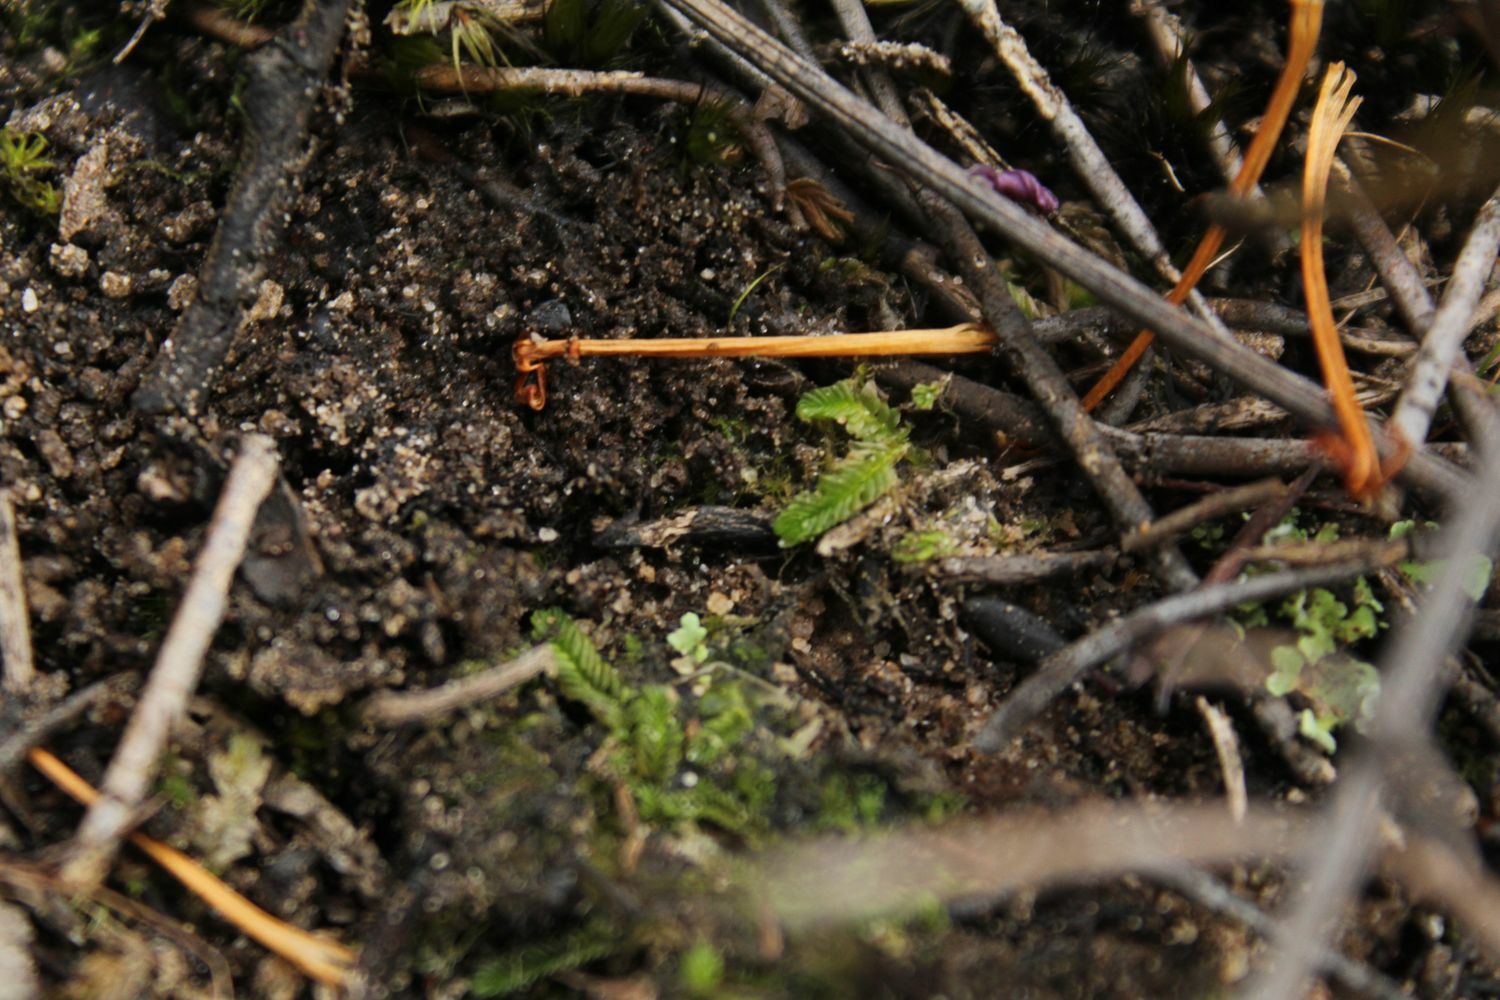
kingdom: Plantae
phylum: Marchantiophyta
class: Jungermanniopsida
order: Jungermanniales
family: Acrobolbaceae
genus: Lethocolea
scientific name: Lethocolea pansa
